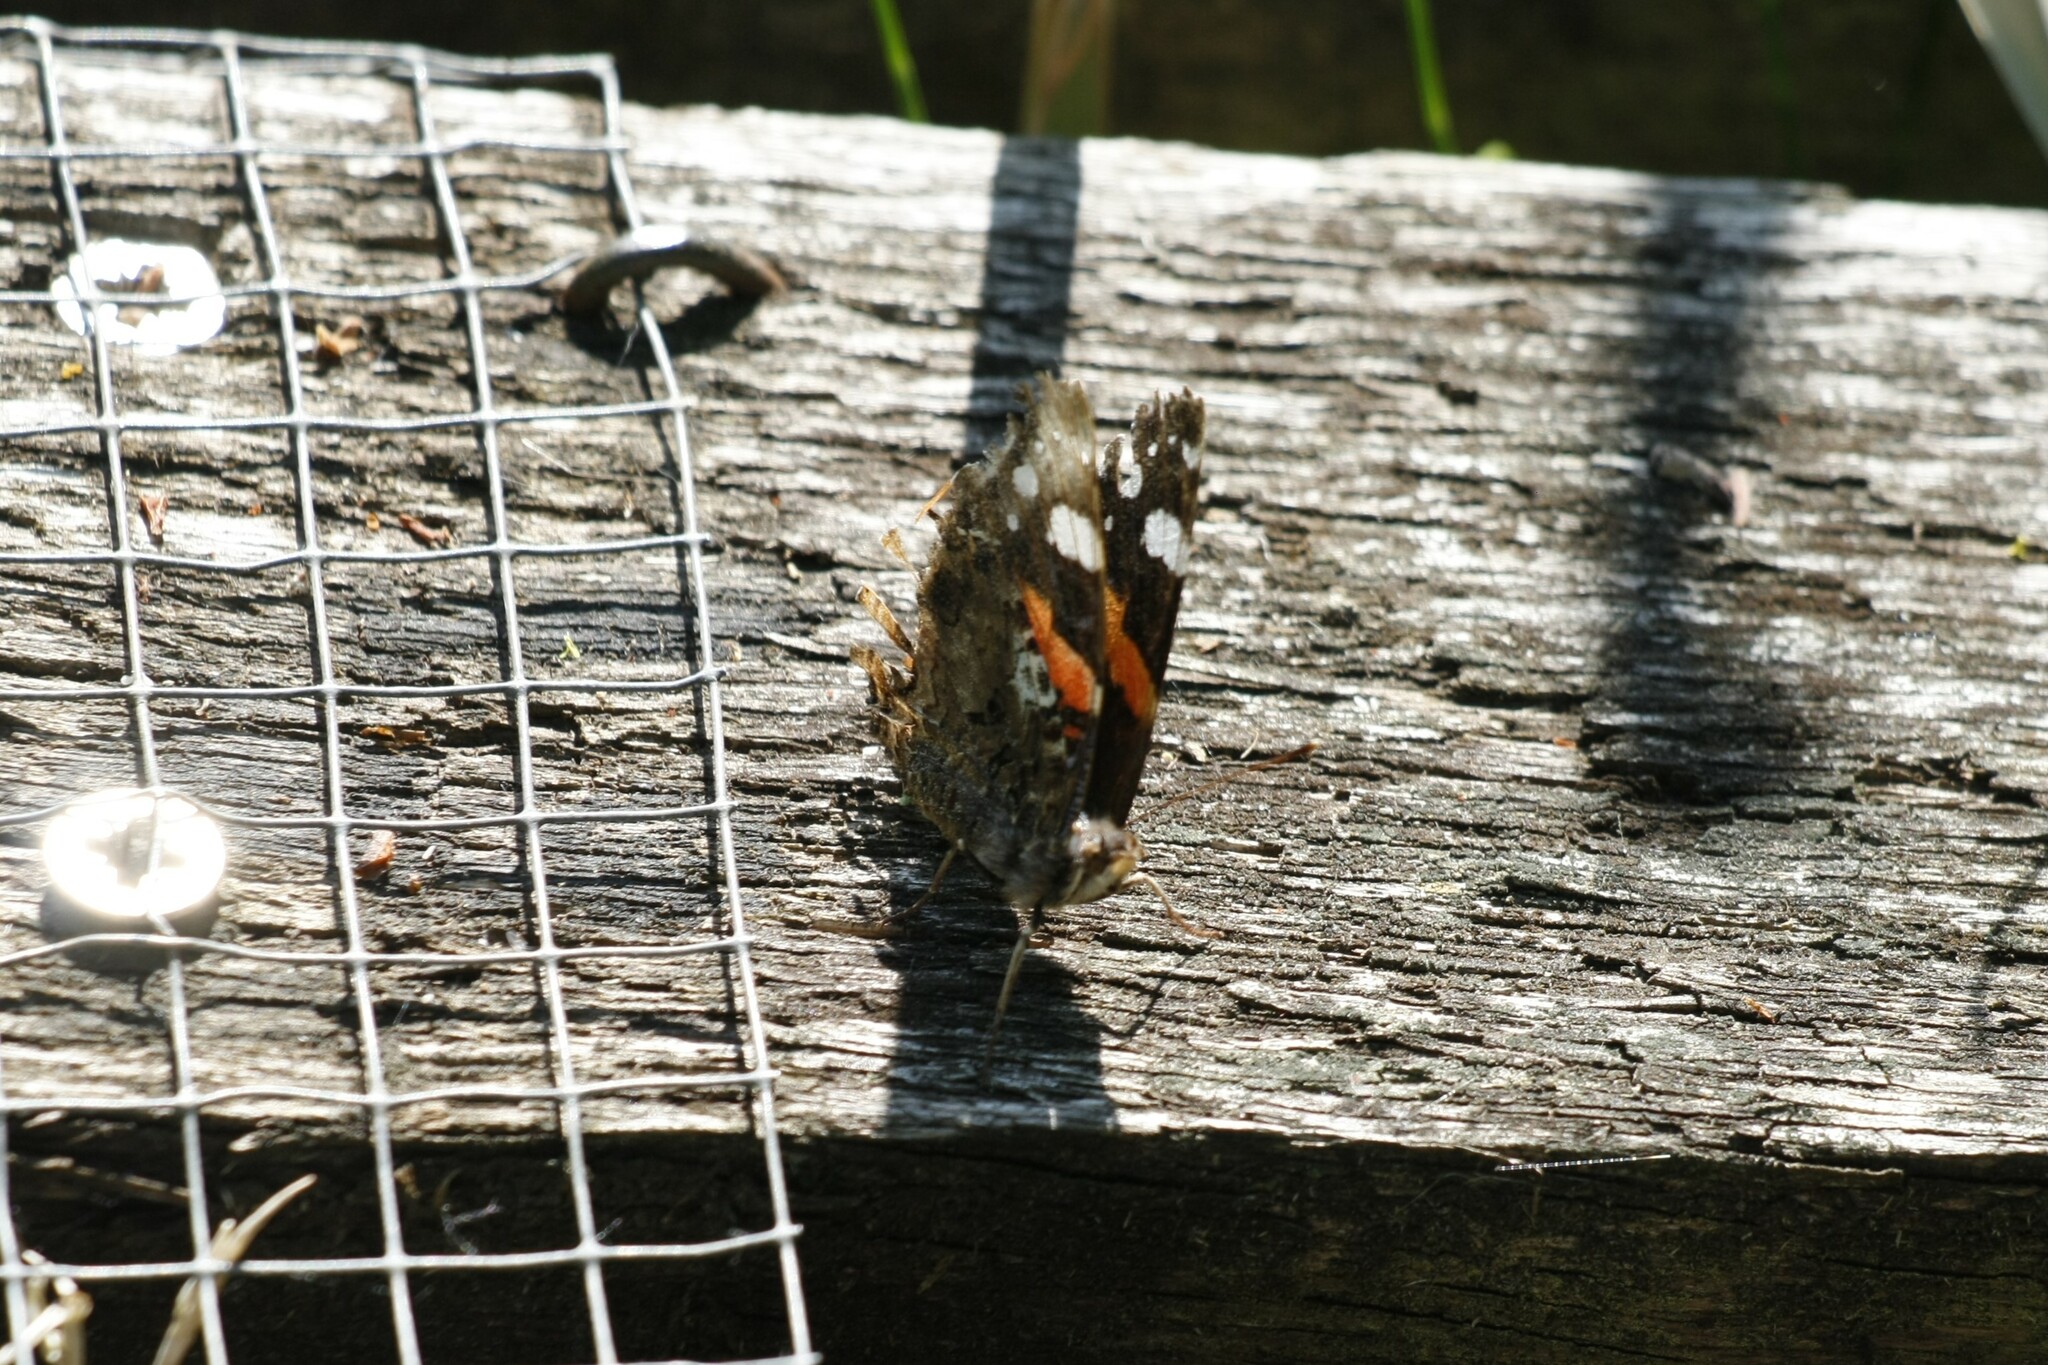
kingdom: Animalia
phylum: Arthropoda
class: Insecta
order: Lepidoptera
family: Nymphalidae
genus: Vanessa
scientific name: Vanessa atalanta
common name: Red admiral
